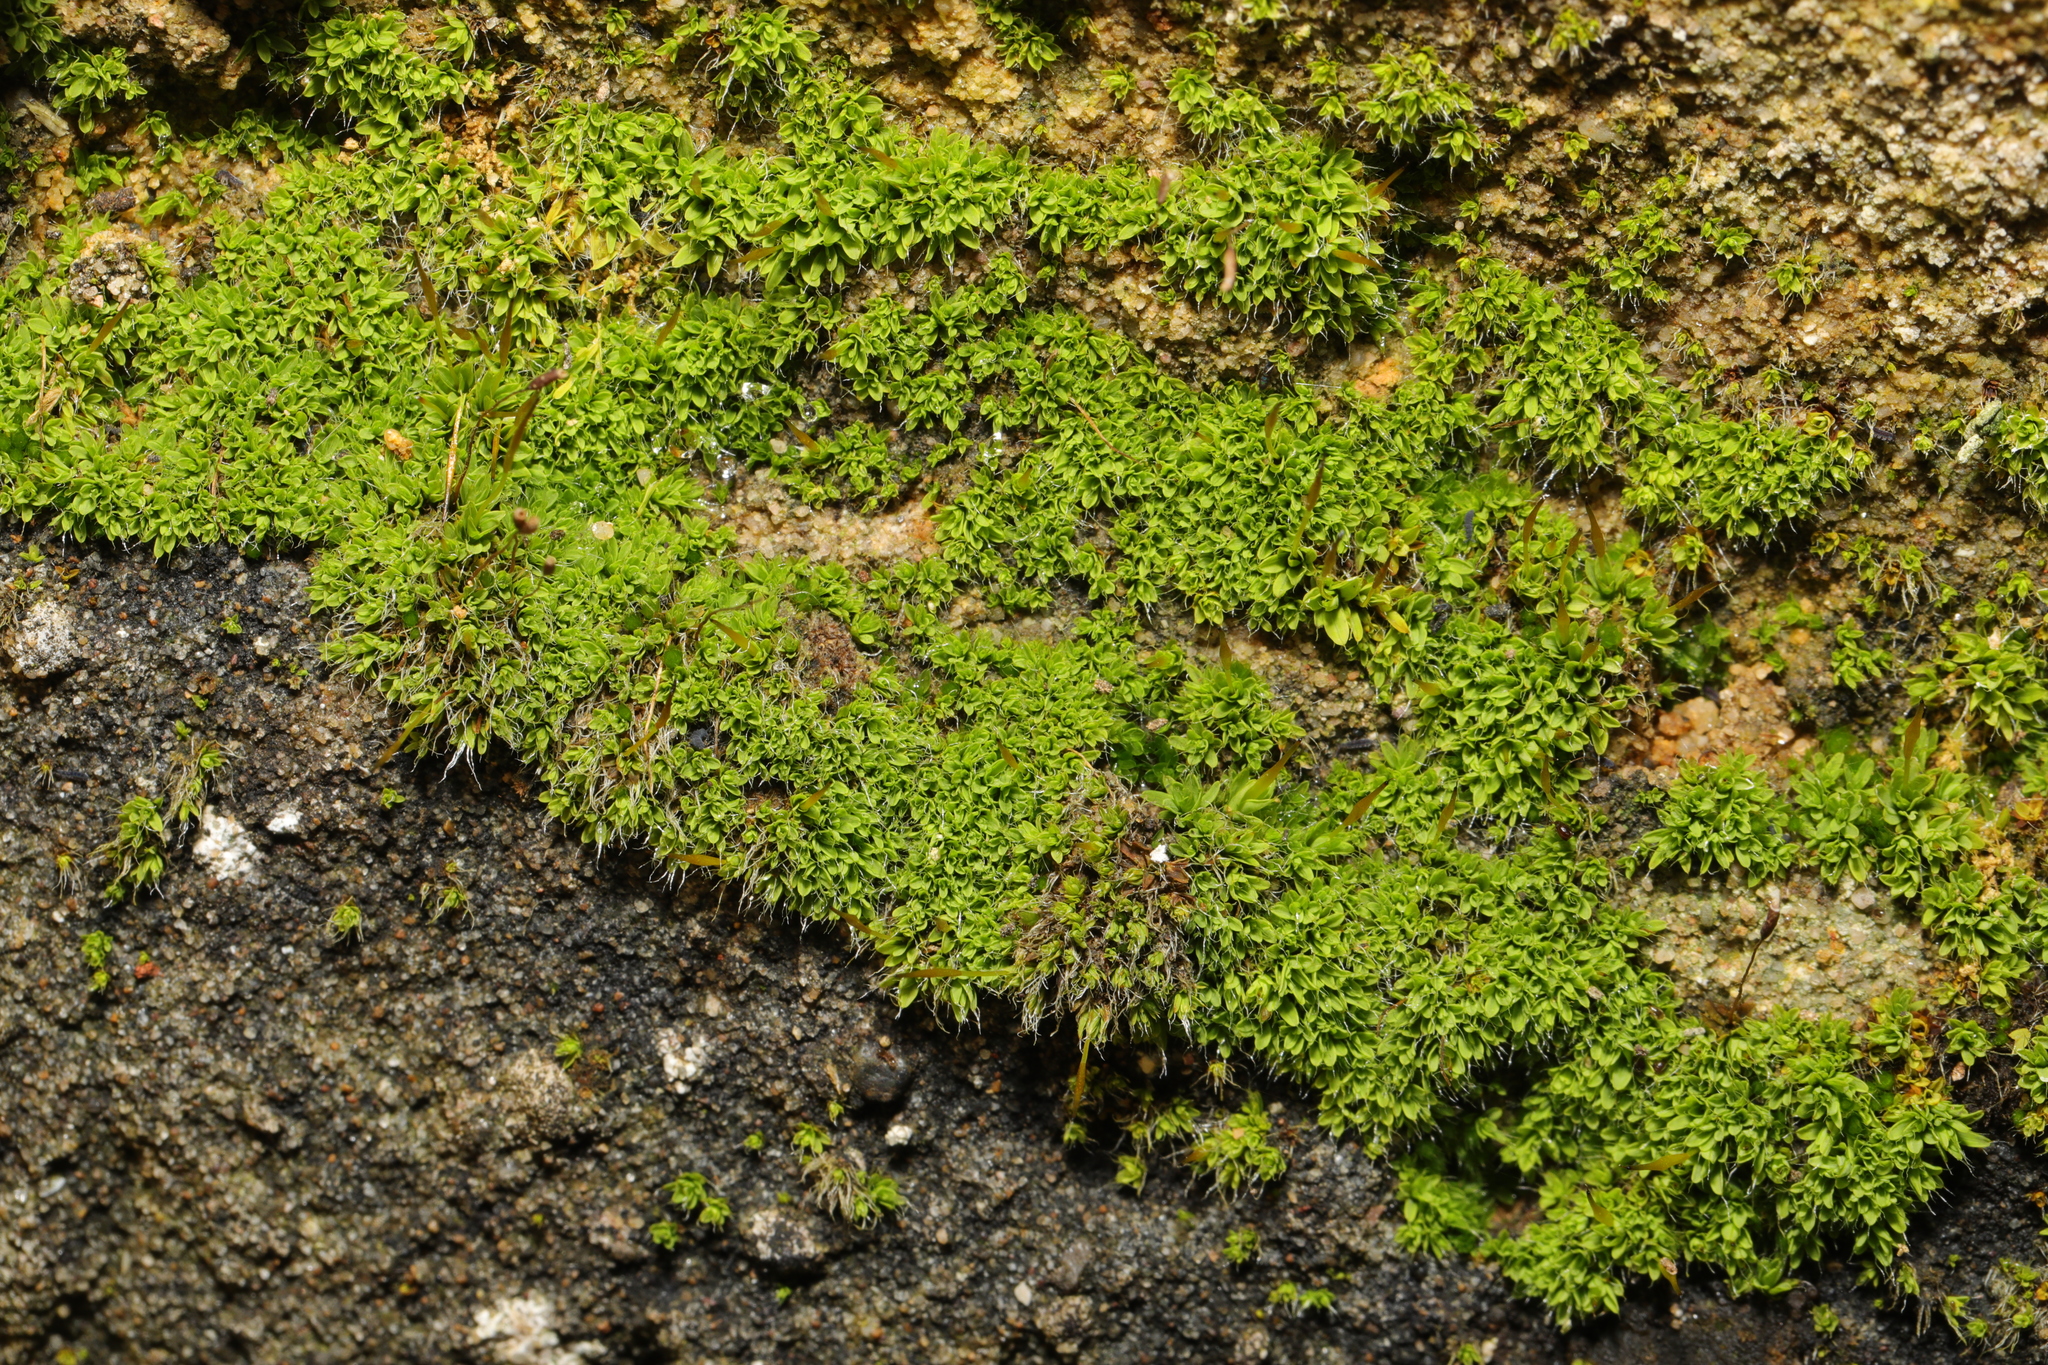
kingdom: Plantae
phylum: Bryophyta
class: Bryopsida
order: Pottiales
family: Pottiaceae
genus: Tortula
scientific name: Tortula muralis
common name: Wall screw-moss
